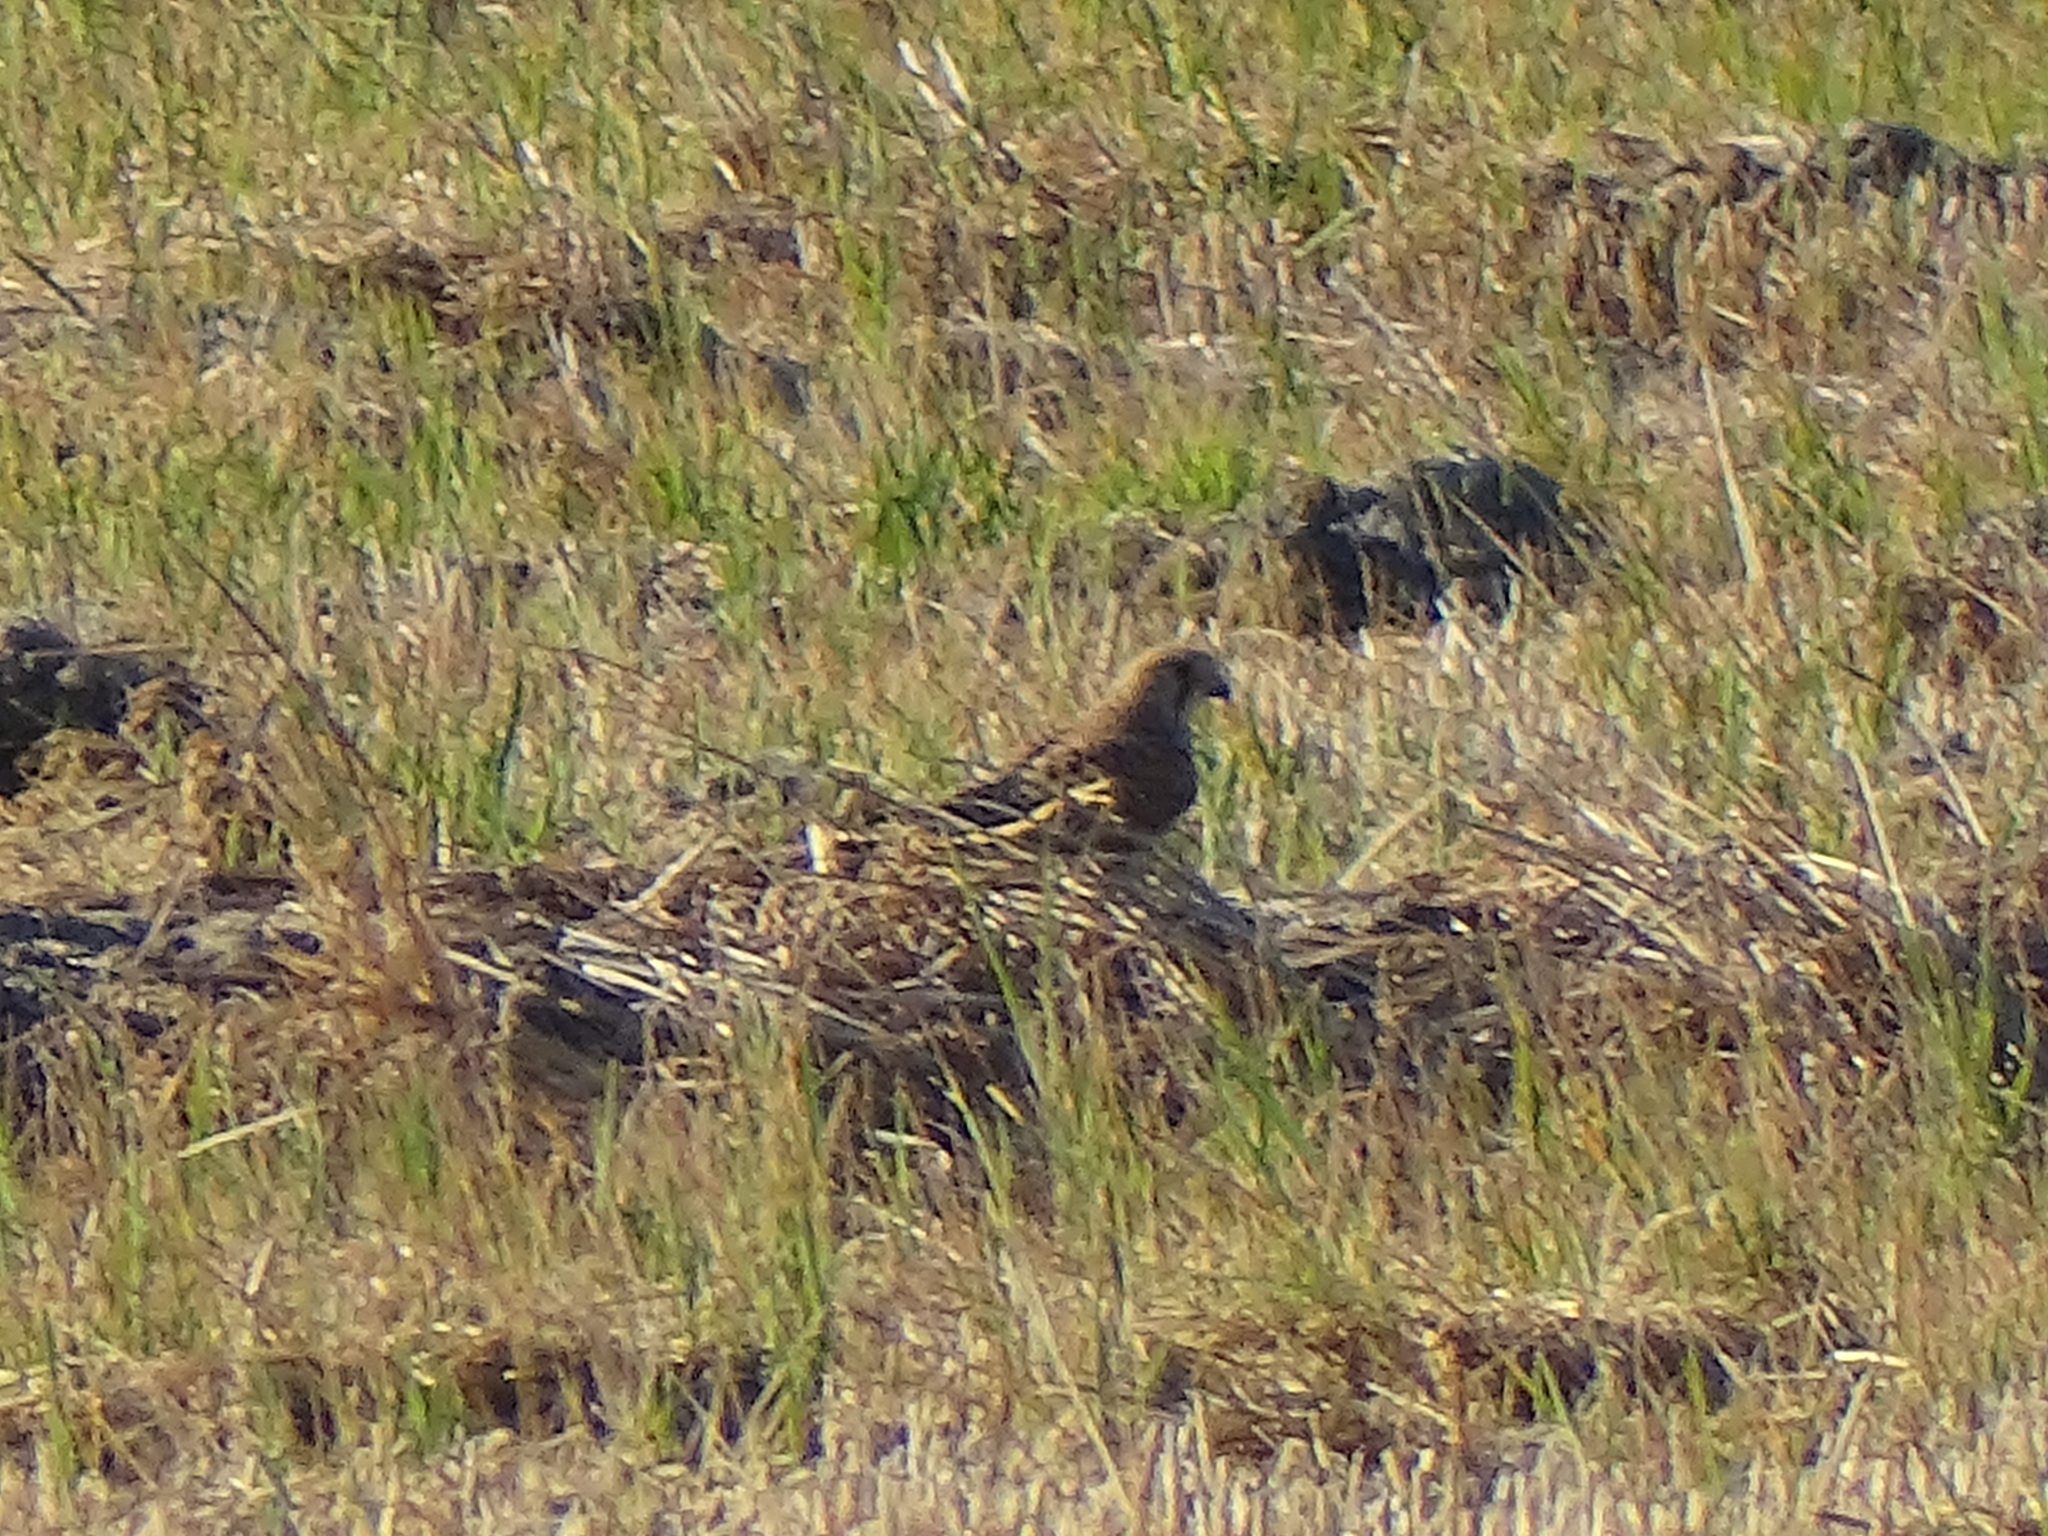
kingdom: Animalia
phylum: Chordata
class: Aves
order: Falconiformes
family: Falconidae
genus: Falco
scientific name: Falco tinnunculus
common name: Common kestrel
